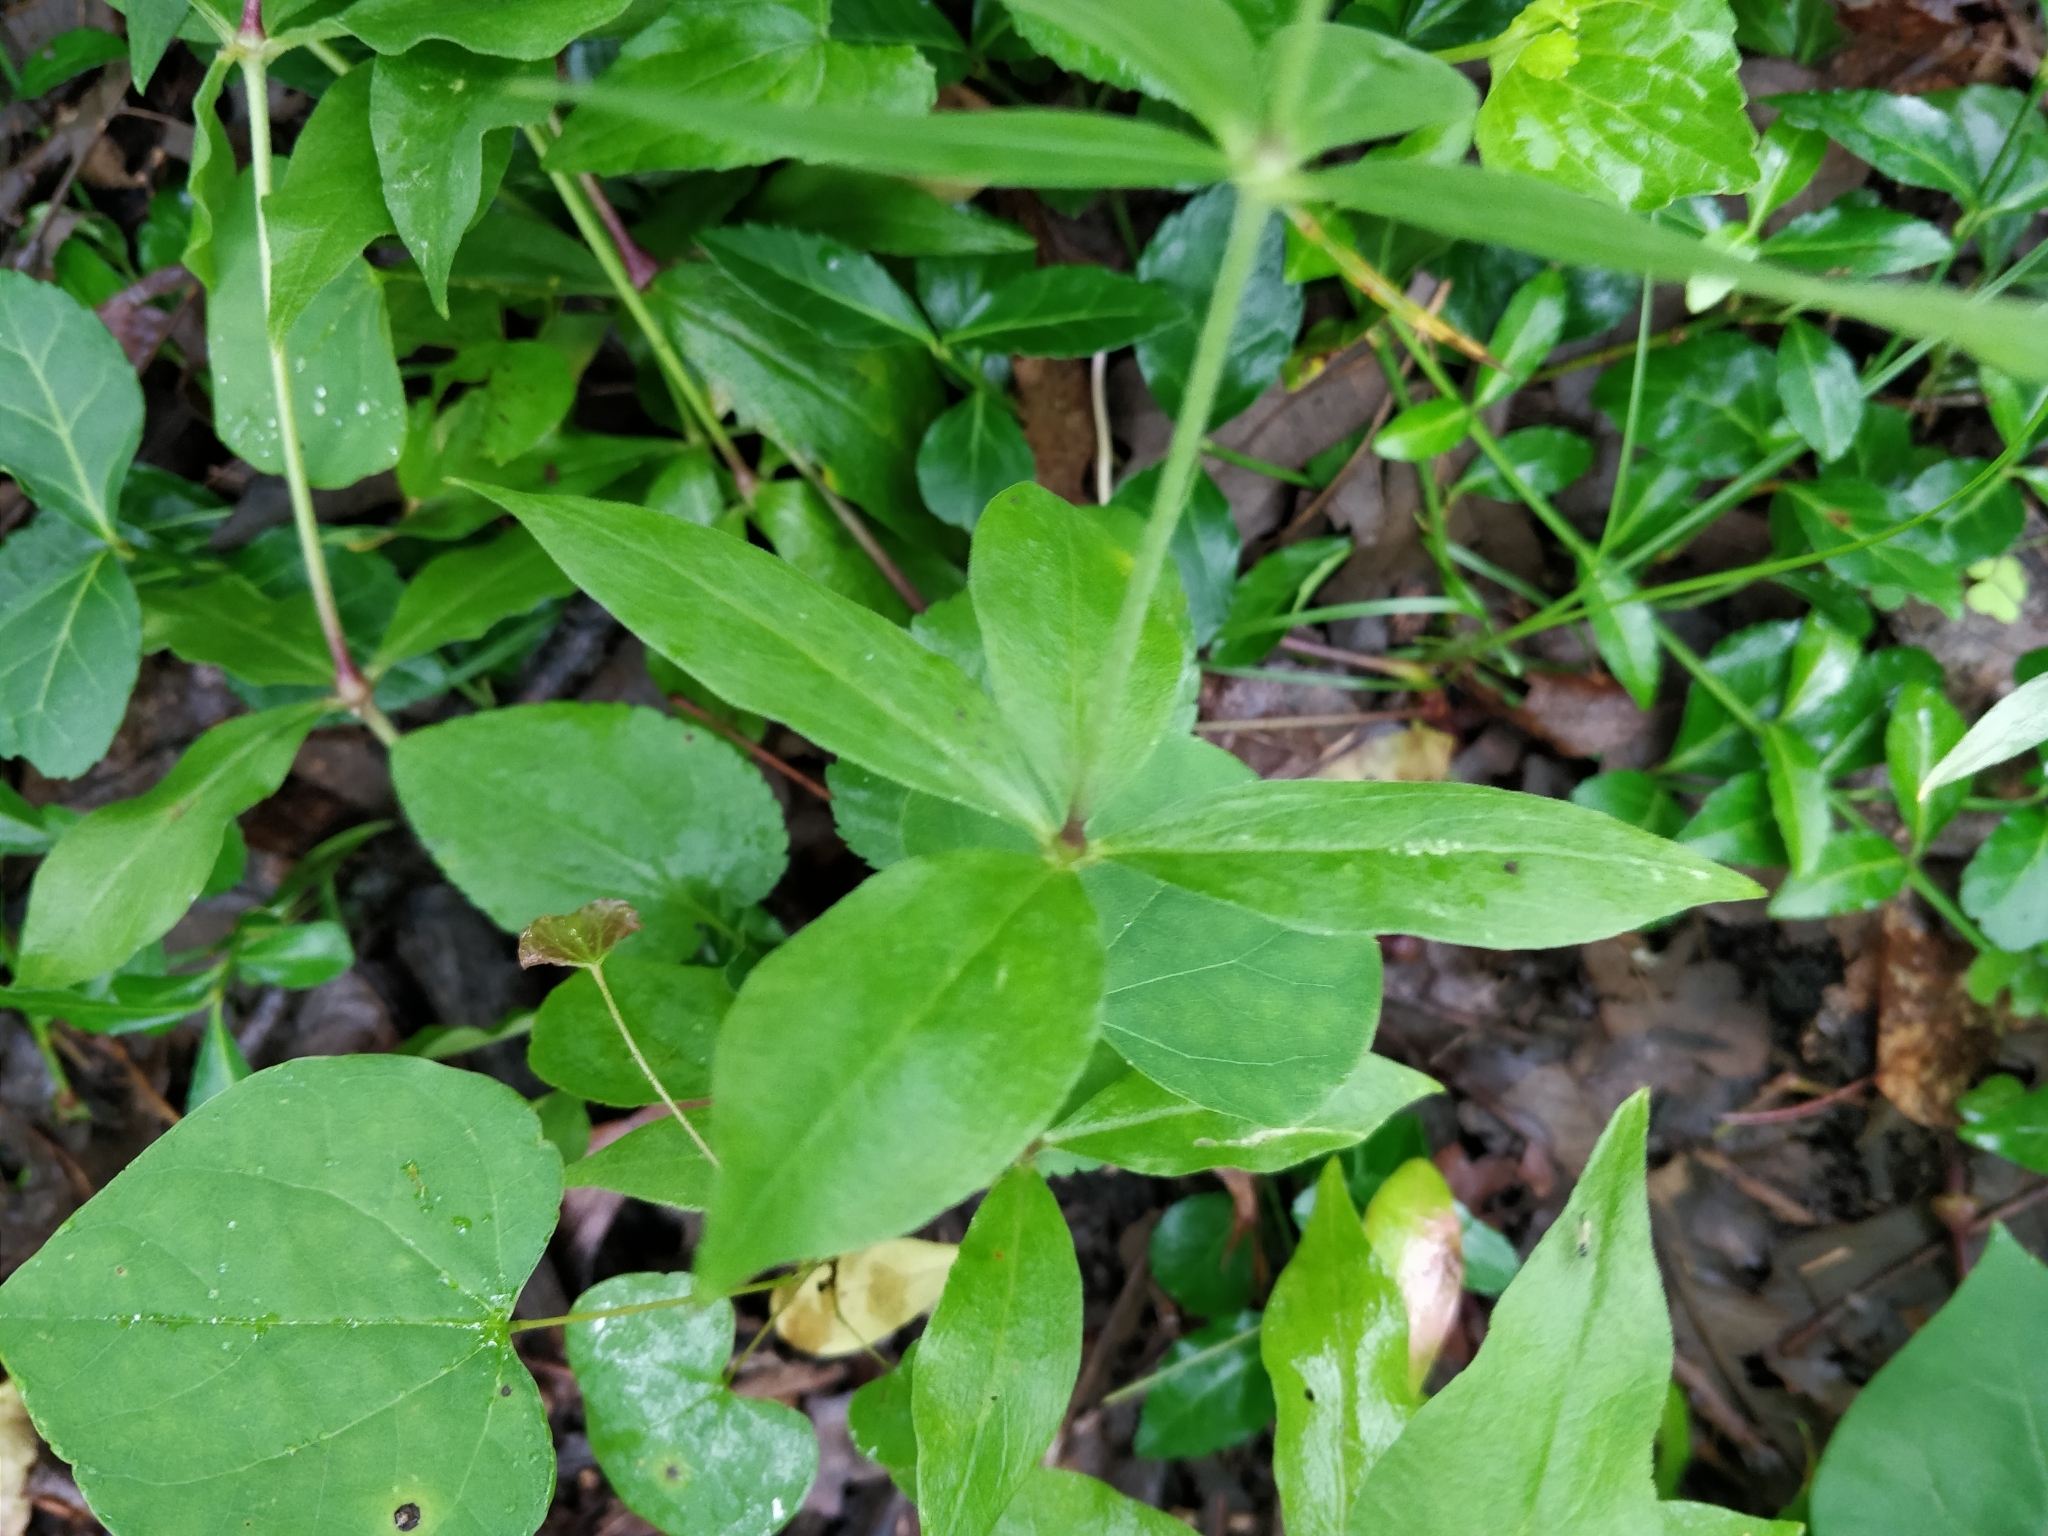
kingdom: Plantae
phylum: Tracheophyta
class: Magnoliopsida
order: Caryophyllales
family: Caryophyllaceae
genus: Silene
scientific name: Silene stellata
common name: Starry campion
